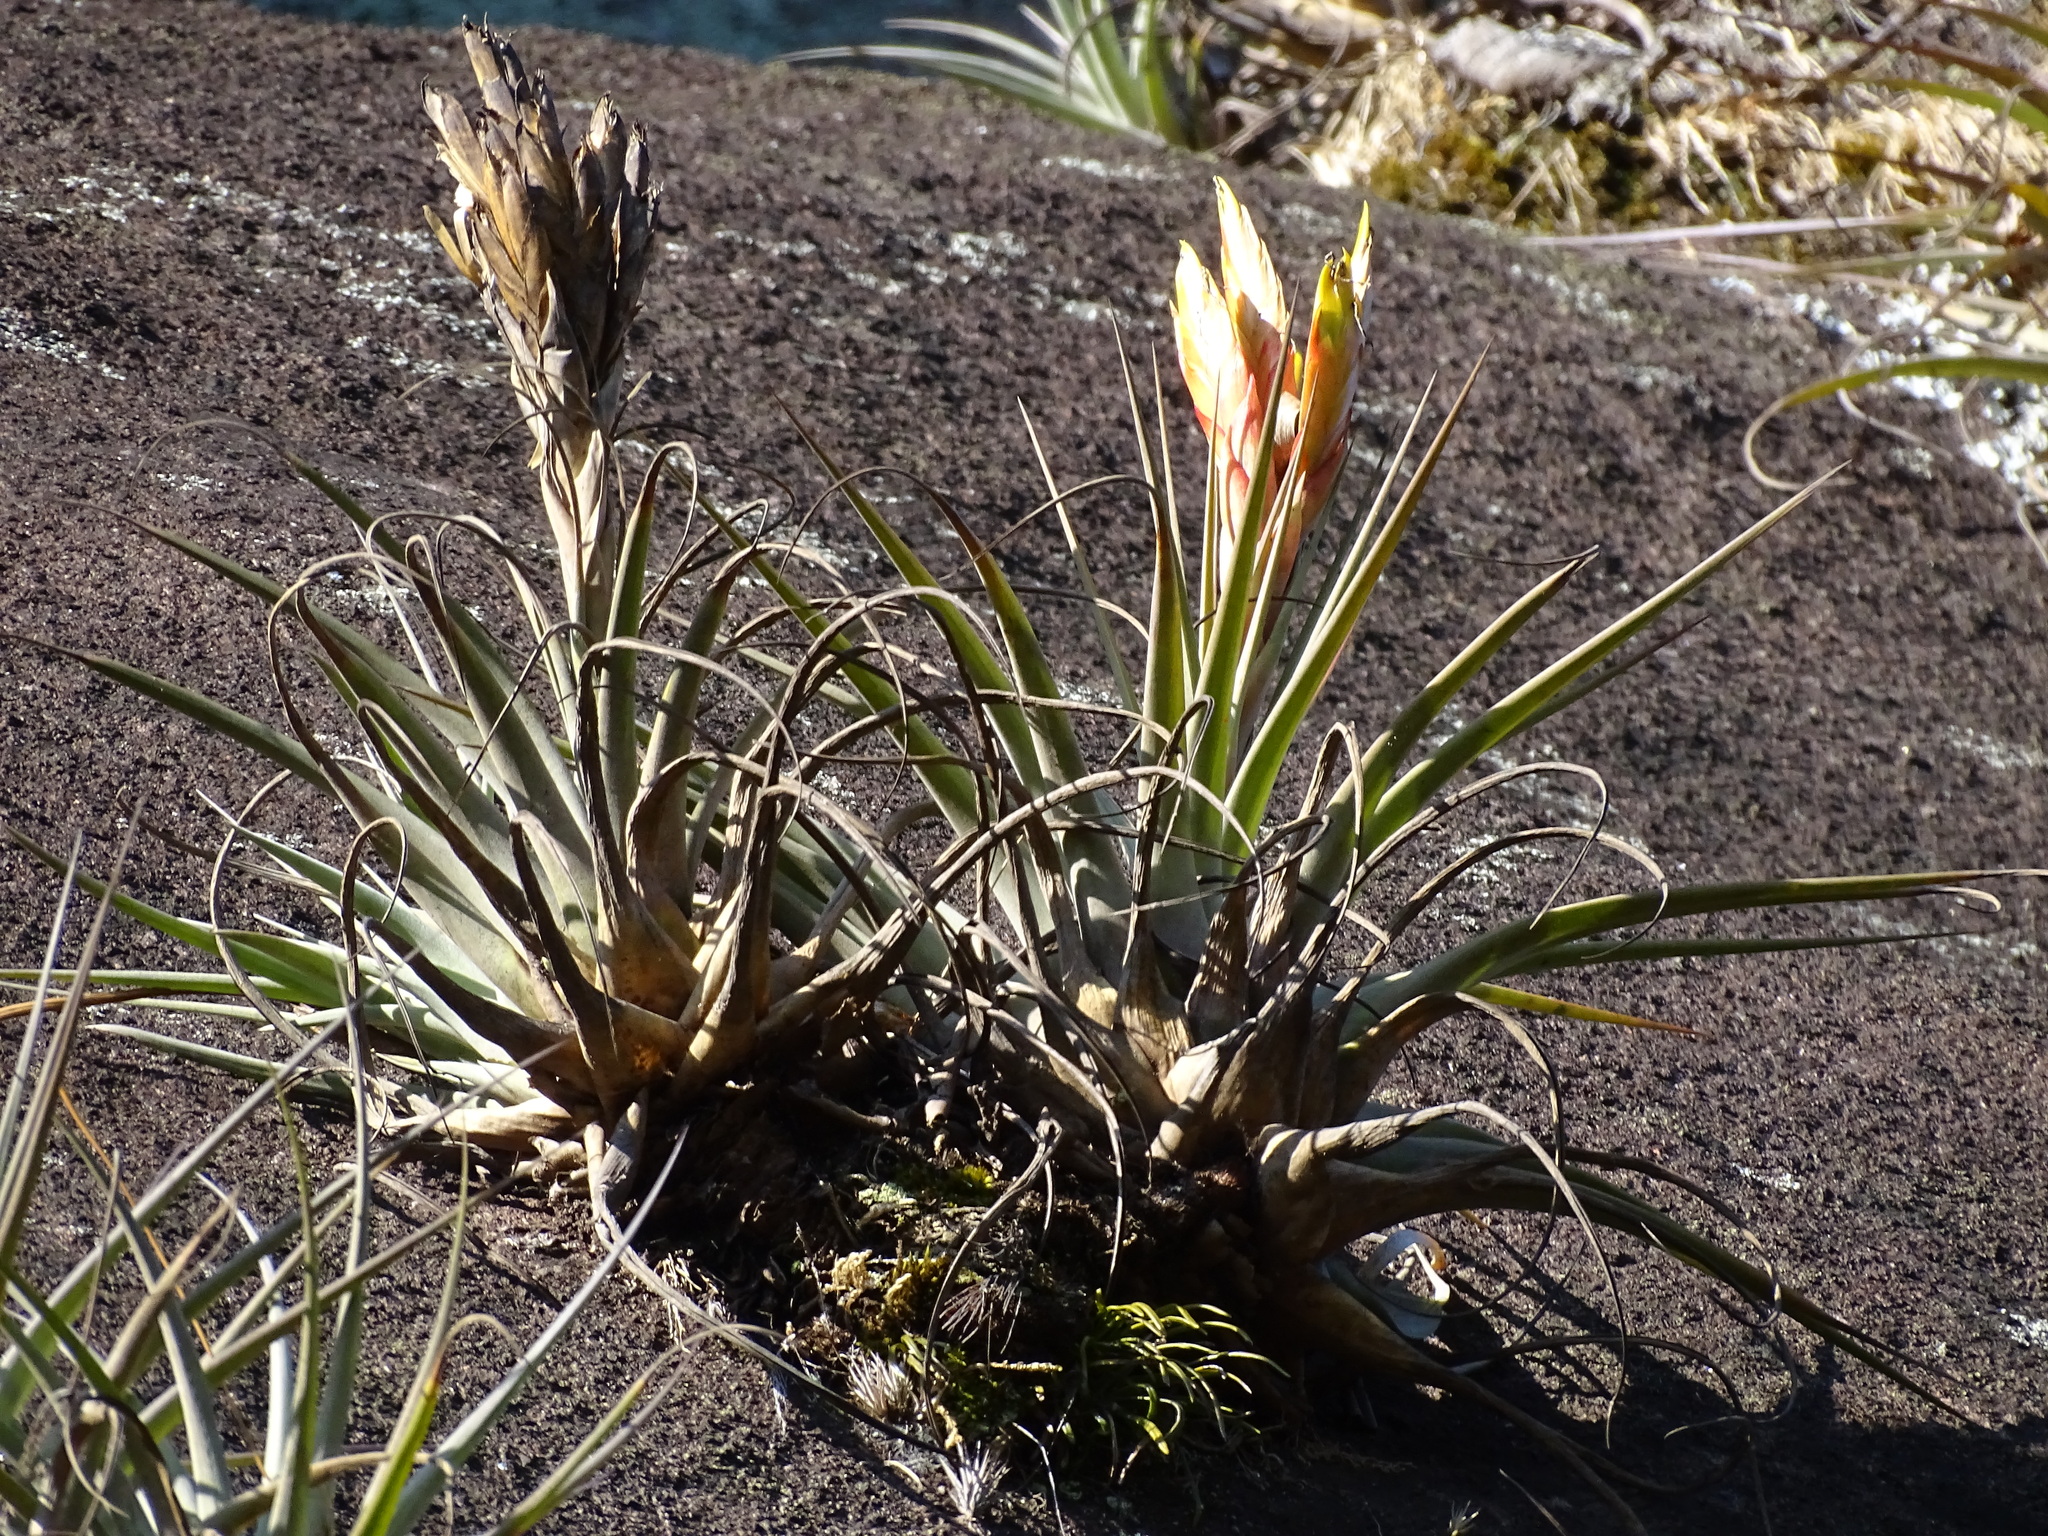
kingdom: Plantae
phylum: Tracheophyta
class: Liliopsida
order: Poales
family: Bromeliaceae
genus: Tillandsia
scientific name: Tillandsia fasciculata
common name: Giant airplant
